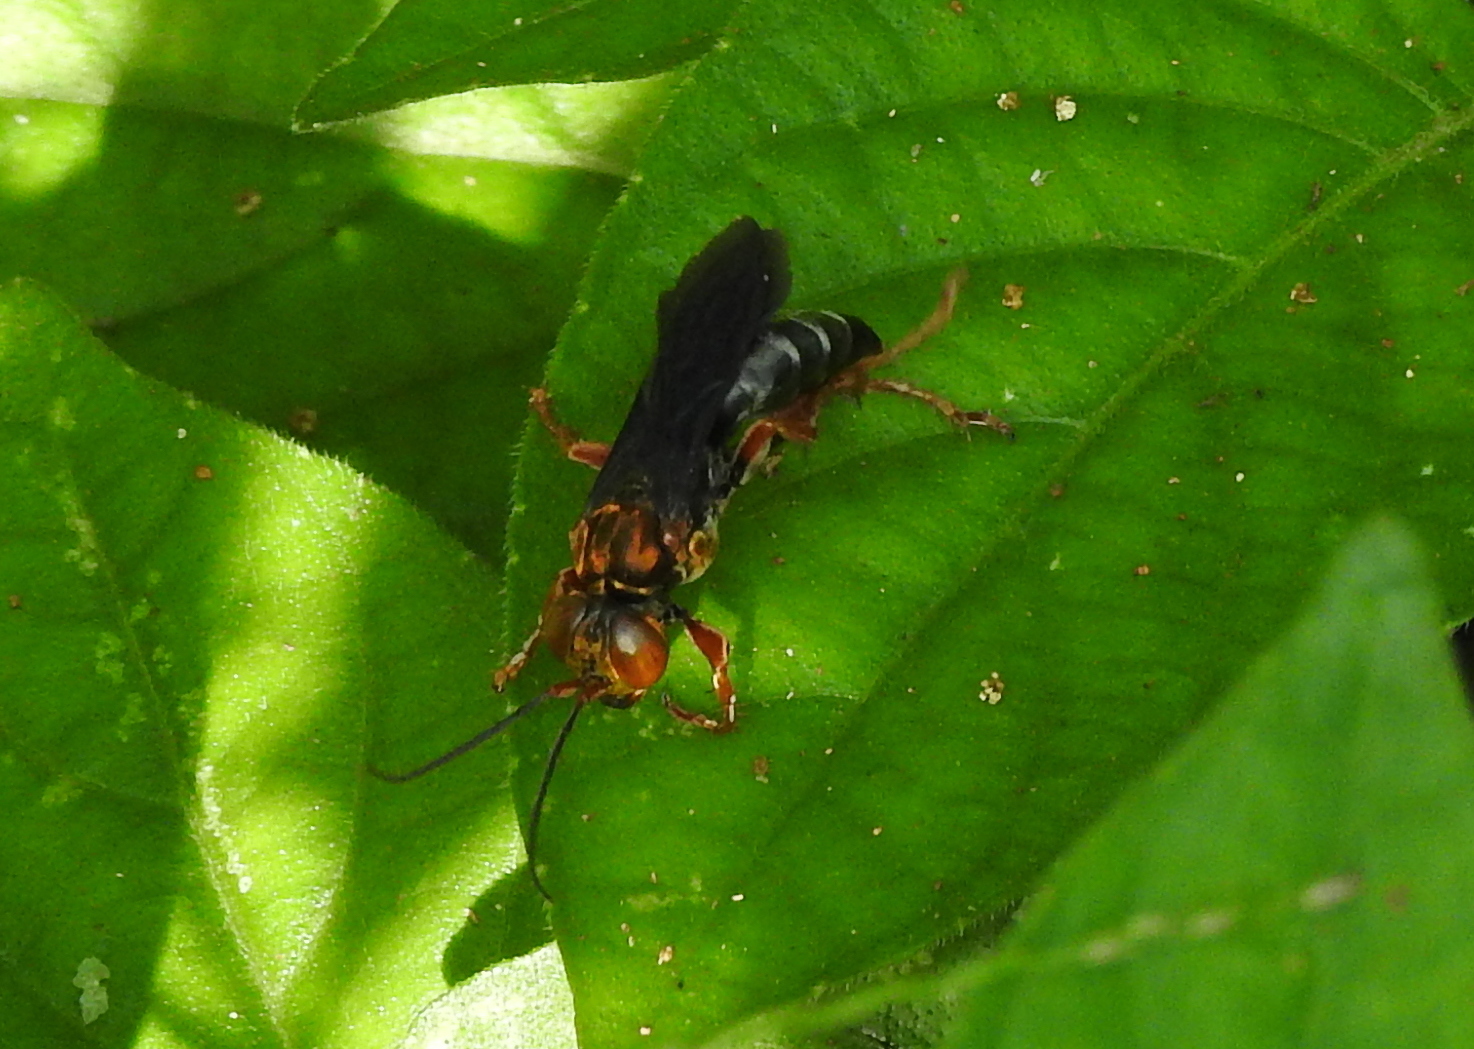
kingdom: Animalia
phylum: Arthropoda
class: Insecta
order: Hymenoptera
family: Crabronidae
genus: Liris
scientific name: Liris aurulentus
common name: Golden cricket wasp
